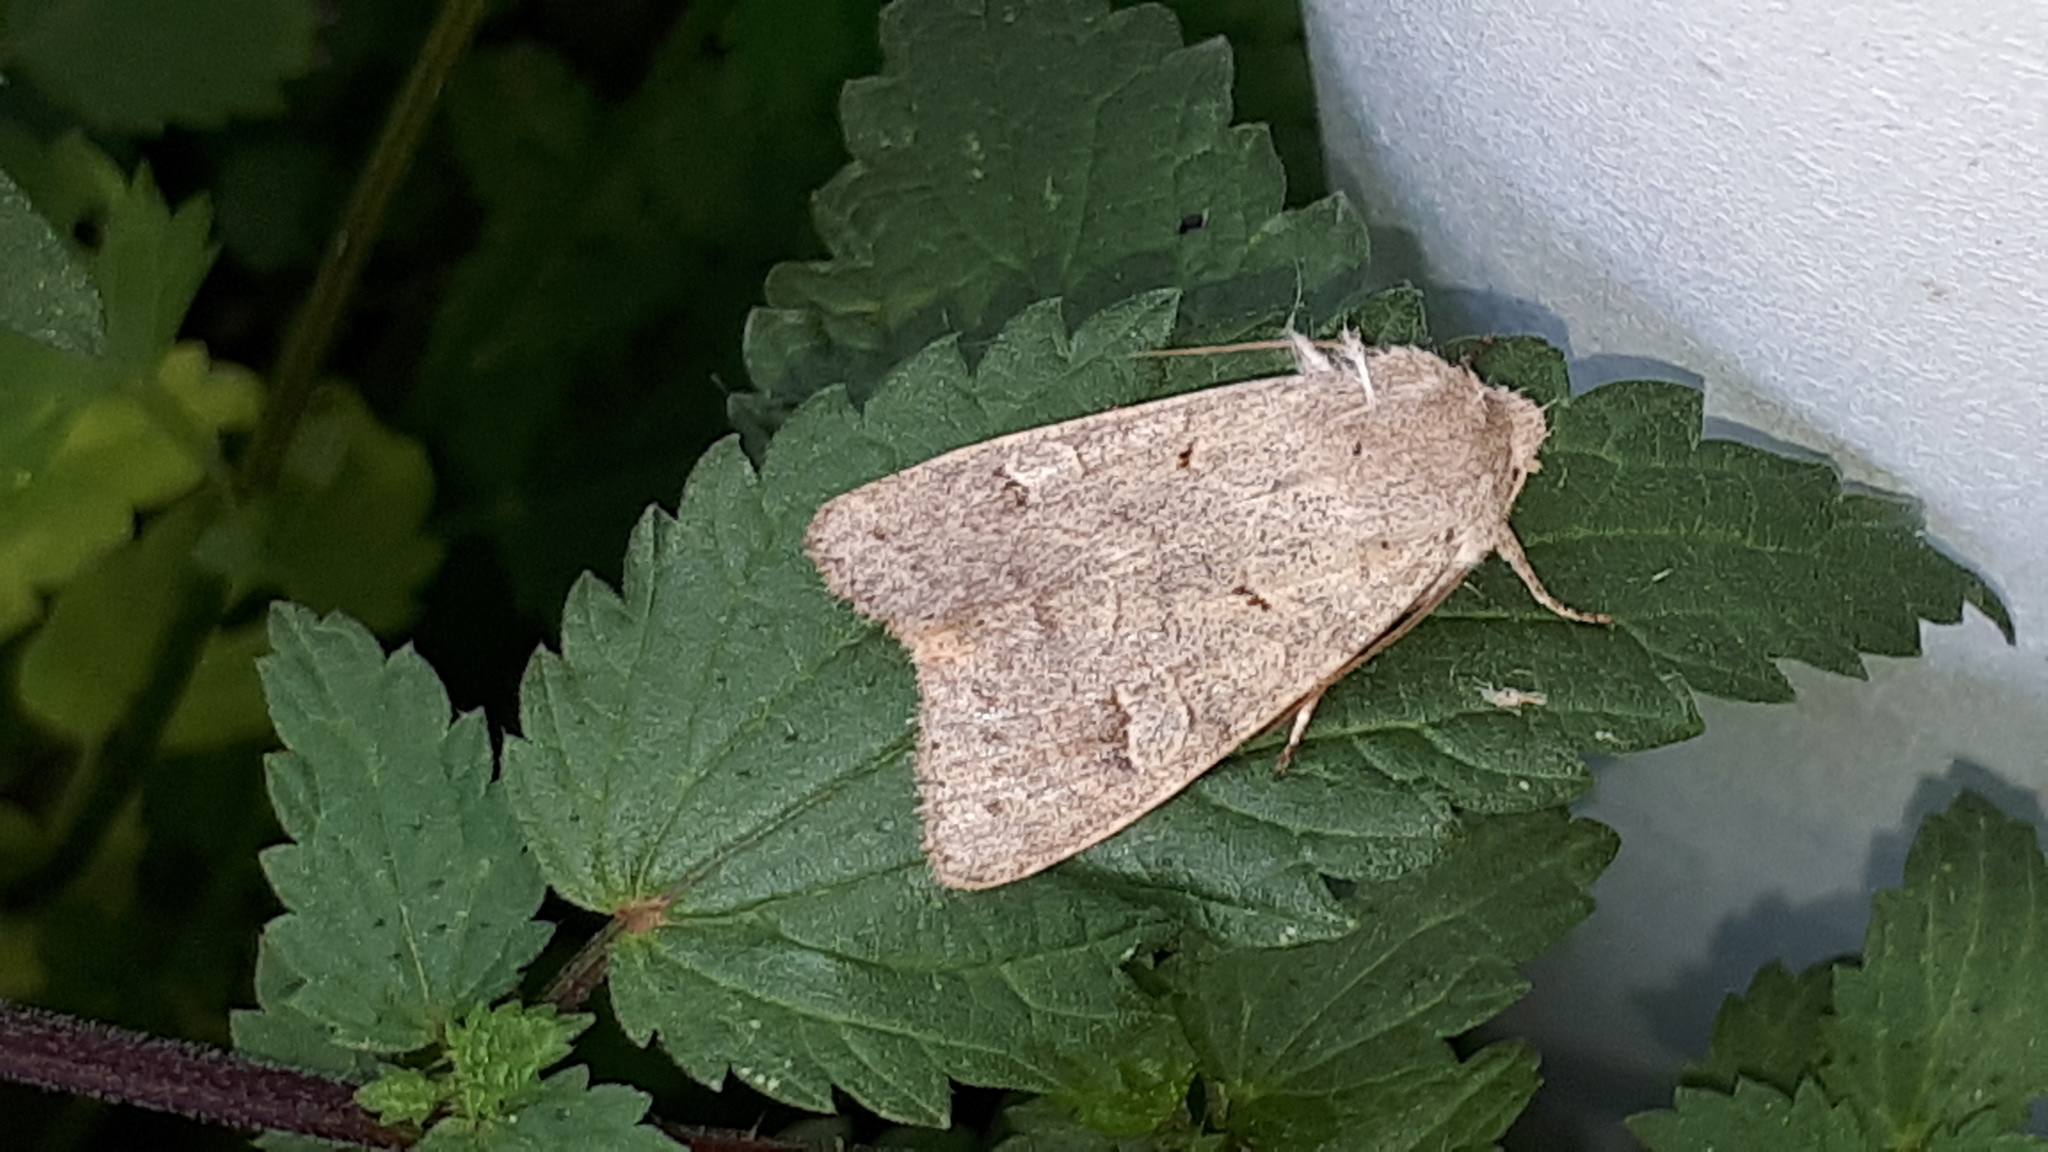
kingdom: Animalia
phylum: Arthropoda
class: Insecta
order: Lepidoptera
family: Noctuidae
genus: Ammoconia
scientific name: Ammoconia caecimacula
